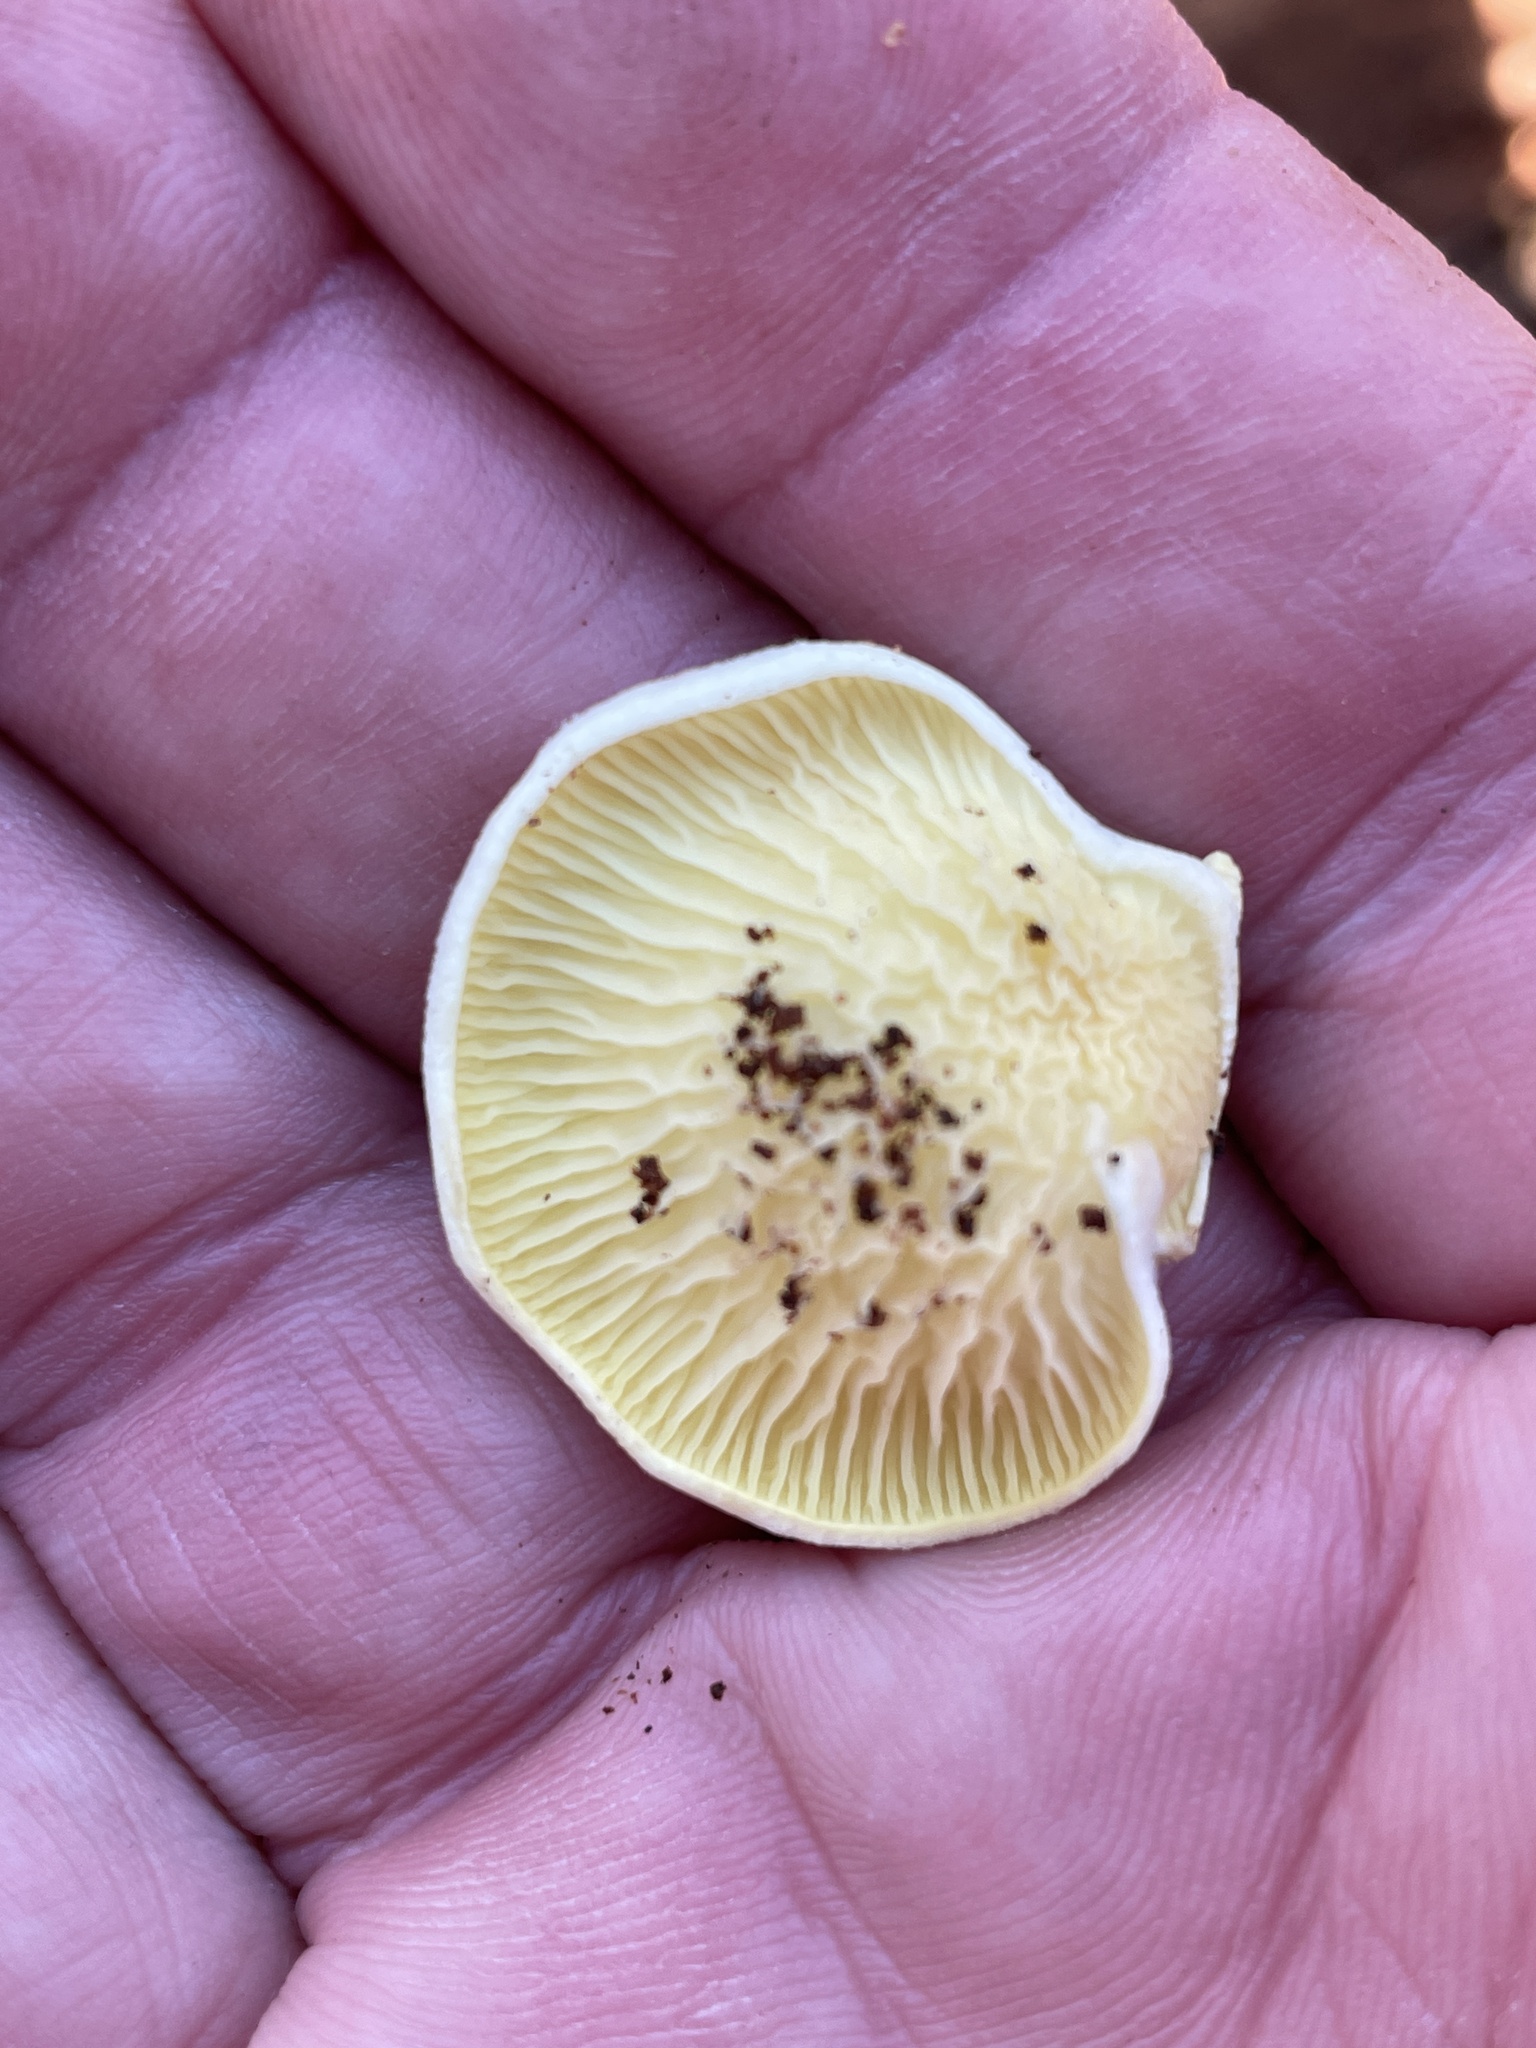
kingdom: Fungi
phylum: Basidiomycota
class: Agaricomycetes
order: Boletales
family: Tapinellaceae
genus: Tapinella
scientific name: Tapinella panuoides
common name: Oyster rollrim
